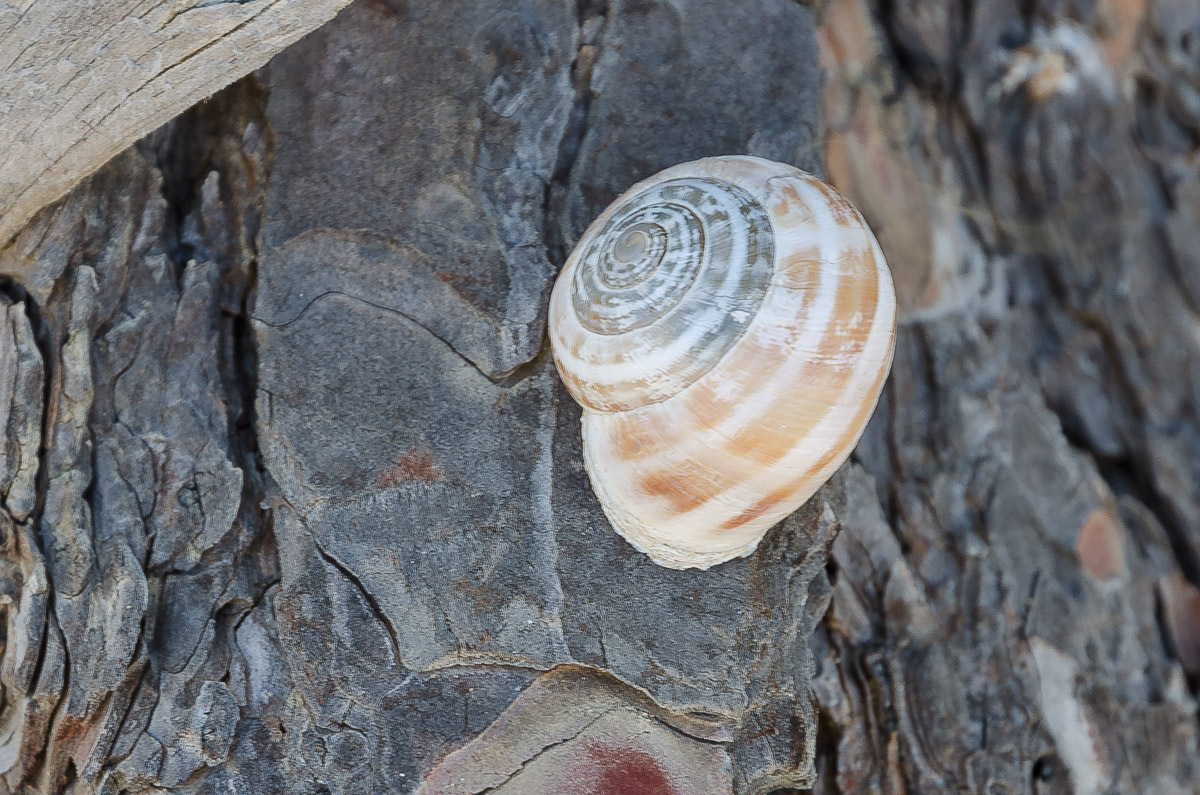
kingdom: Animalia
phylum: Mollusca
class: Gastropoda
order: Stylommatophora
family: Helicidae
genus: Eobania
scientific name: Eobania vermiculata
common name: Chocolateband snail
